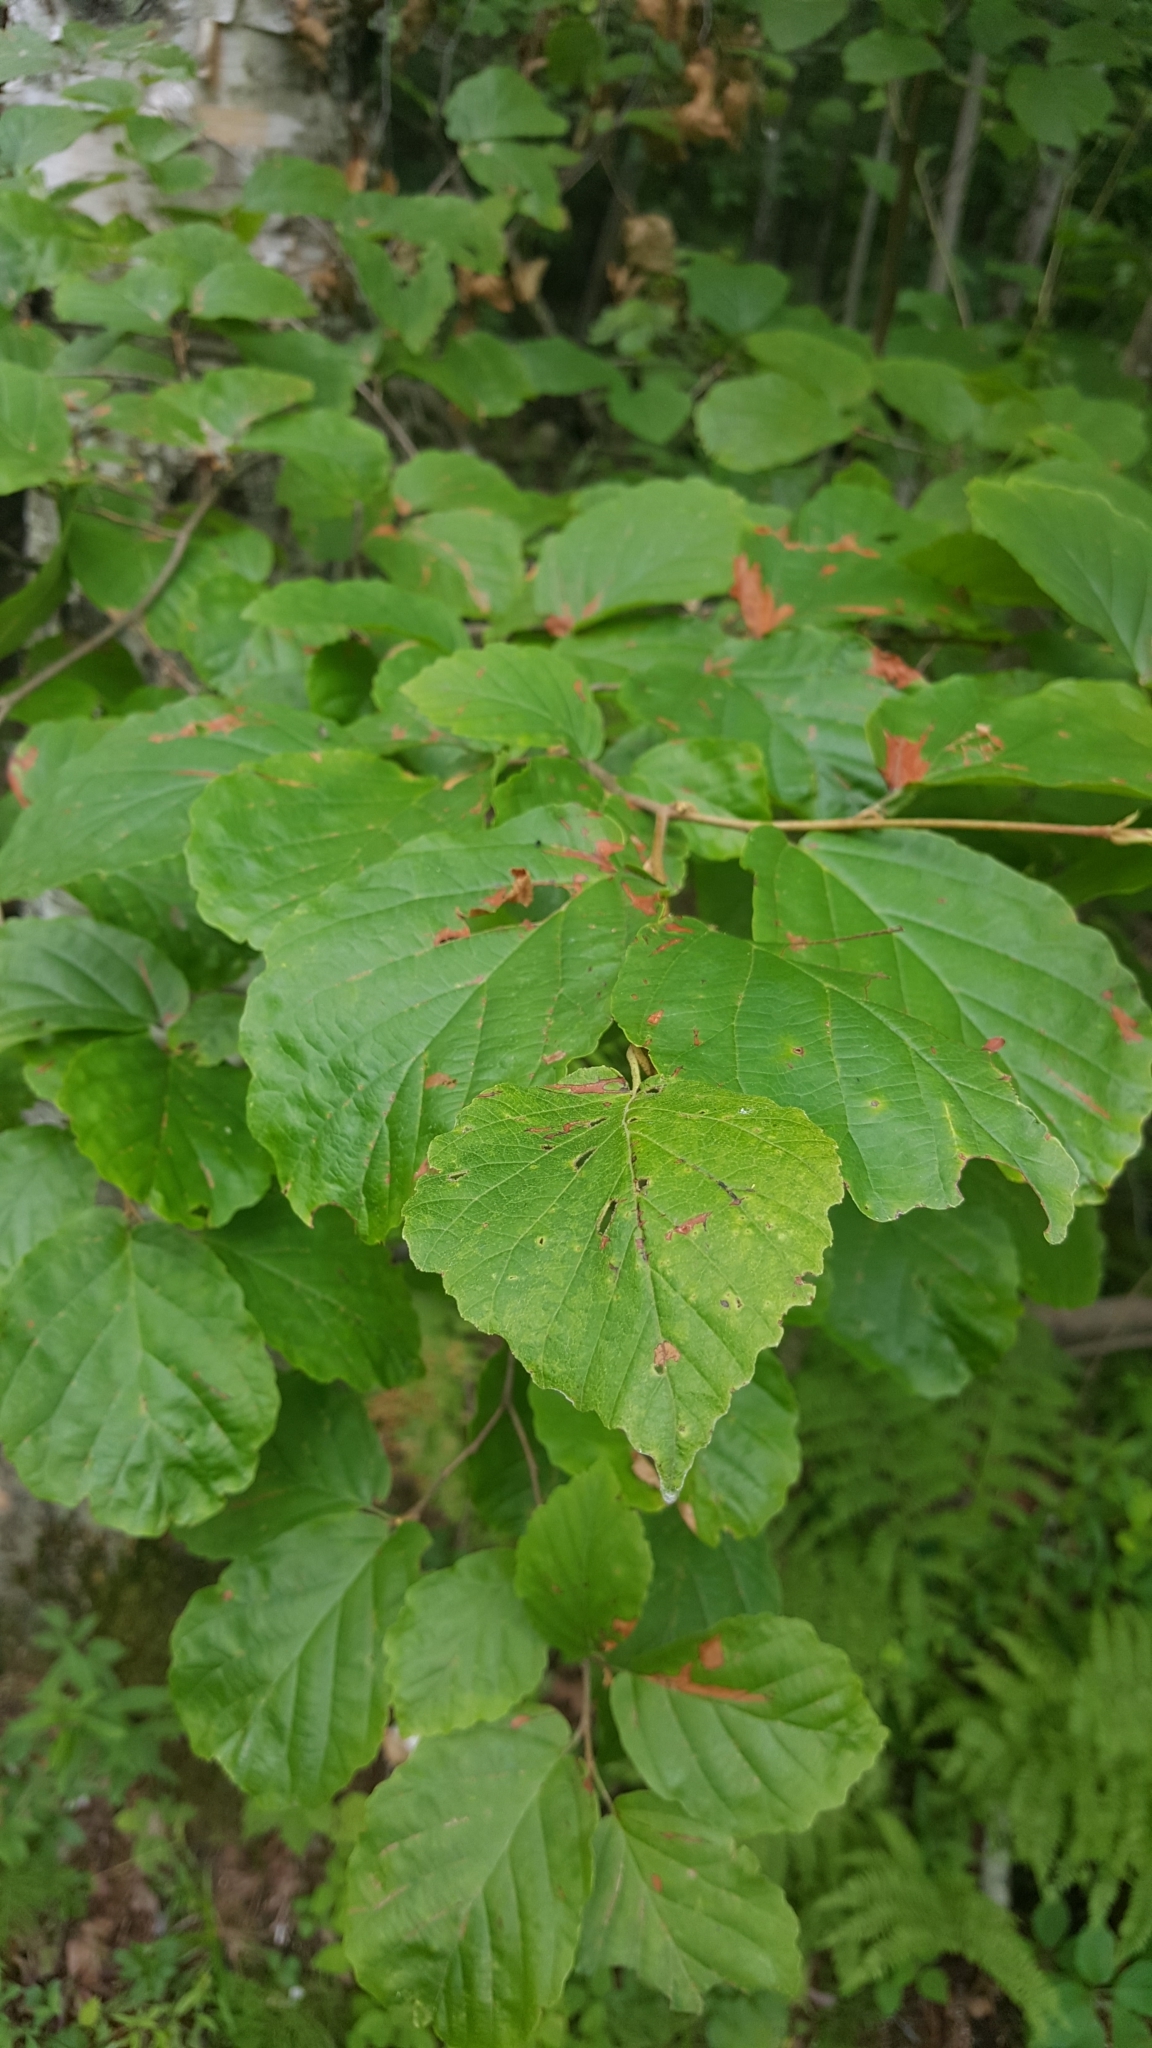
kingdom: Plantae
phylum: Tracheophyta
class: Magnoliopsida
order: Saxifragales
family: Hamamelidaceae
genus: Hamamelis
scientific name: Hamamelis virginiana
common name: Witch-hazel
